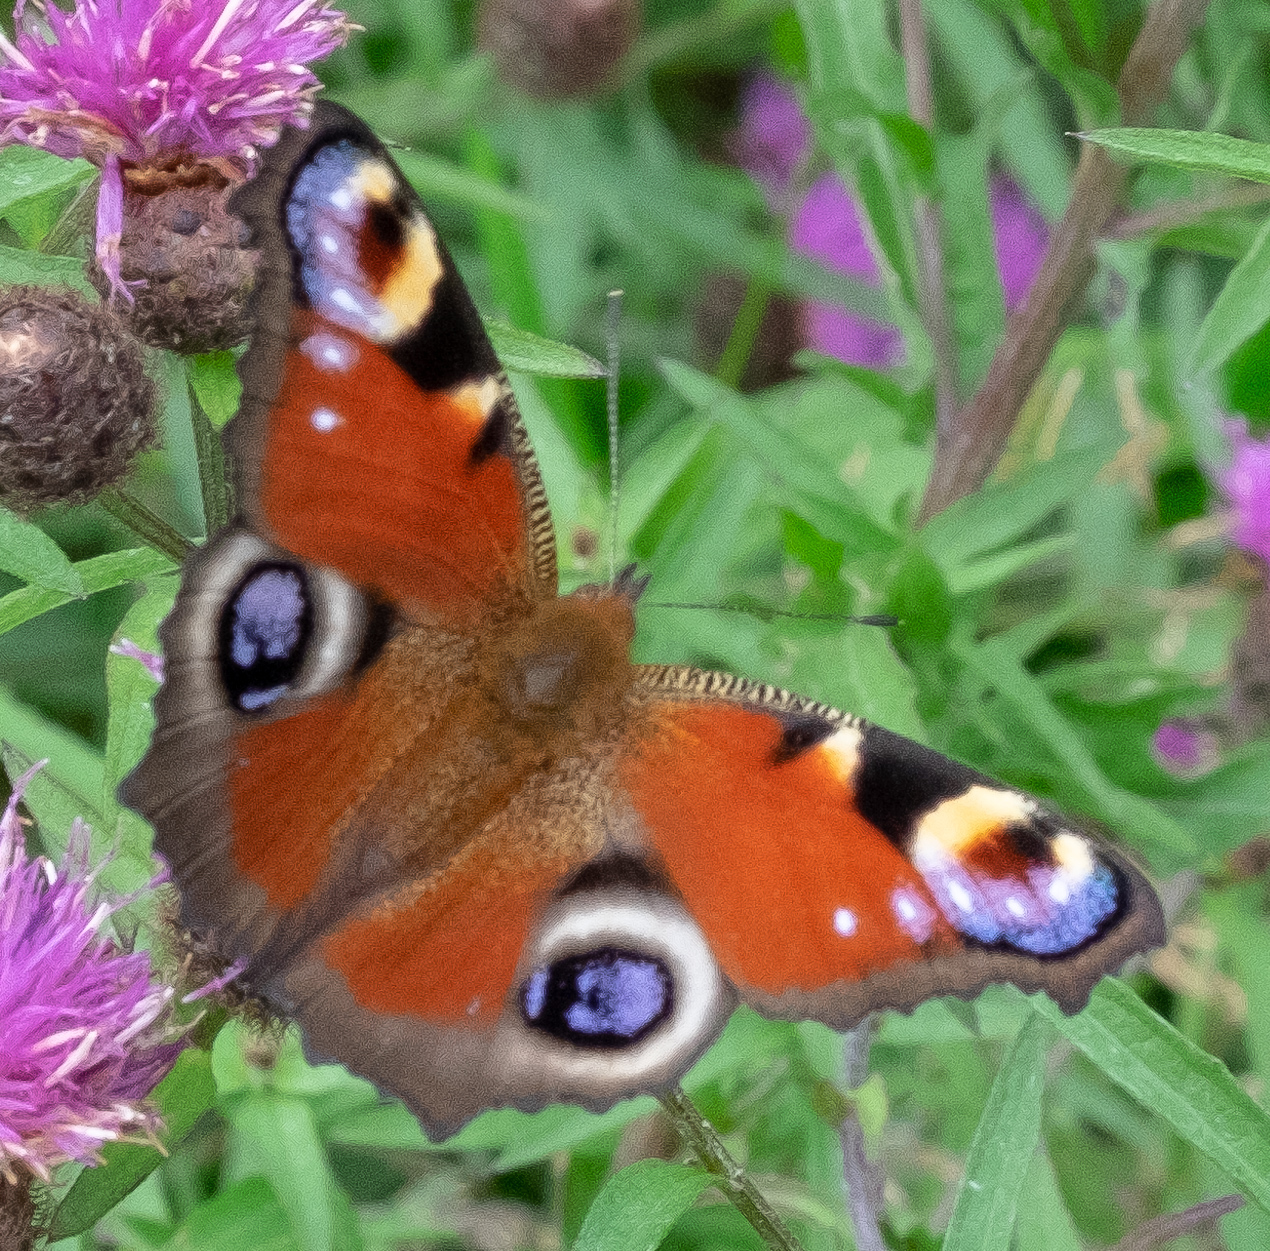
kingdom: Animalia
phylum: Arthropoda
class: Insecta
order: Lepidoptera
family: Nymphalidae
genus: Aglais
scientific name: Aglais io
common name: Peacock
